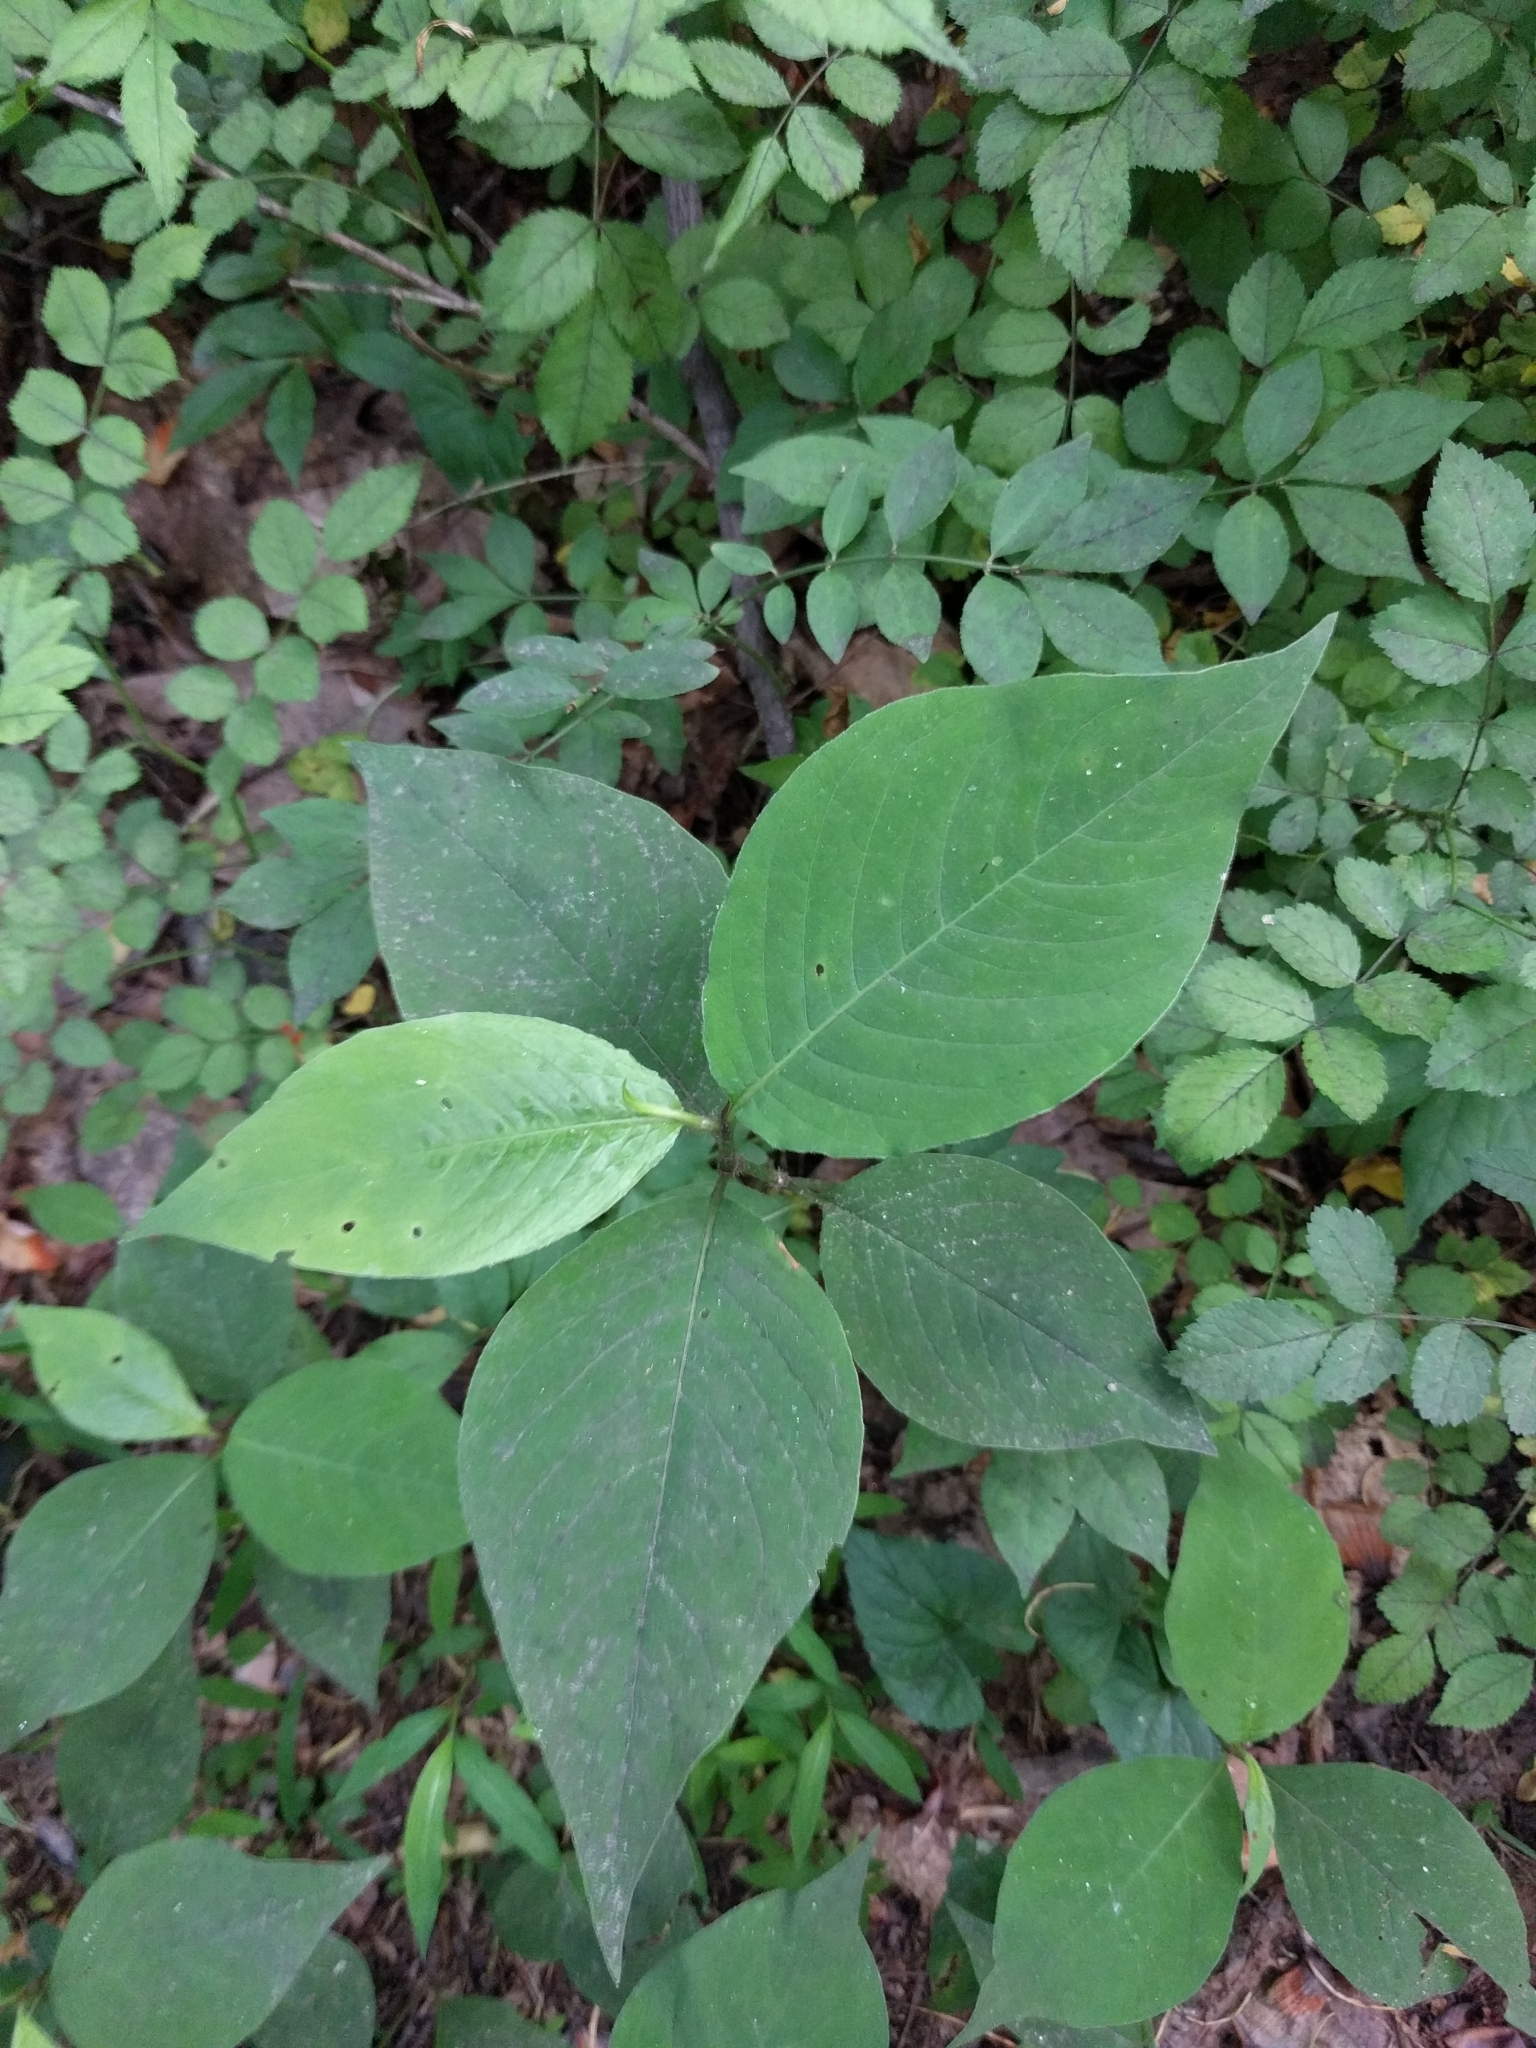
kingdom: Plantae
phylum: Tracheophyta
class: Magnoliopsida
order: Caryophyllales
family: Polygonaceae
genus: Persicaria
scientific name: Persicaria virginiana
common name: Jumpseed
